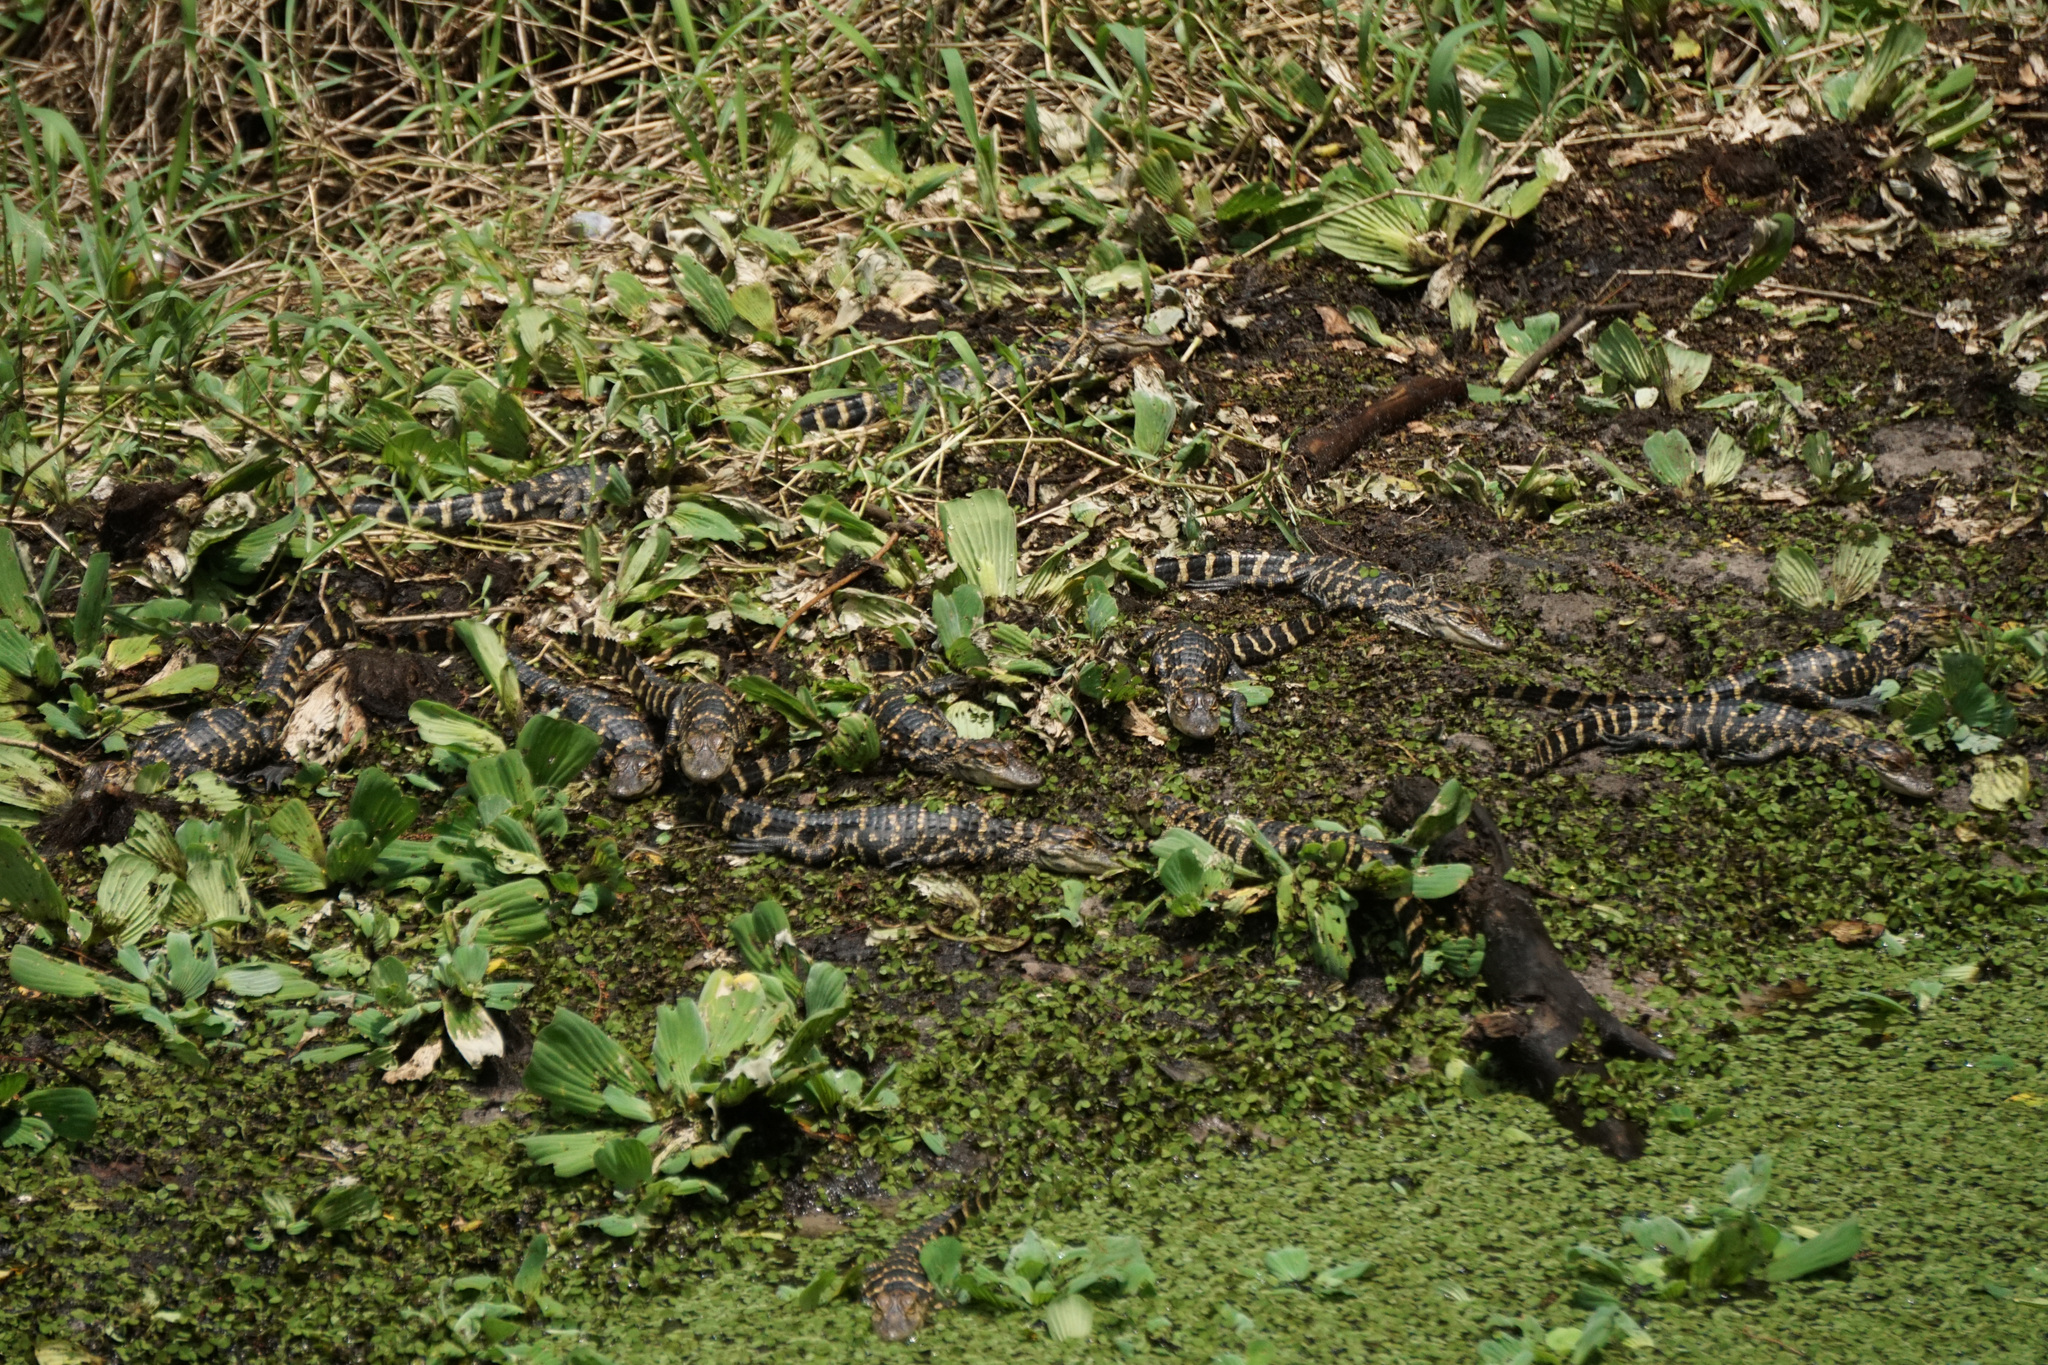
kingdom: Animalia
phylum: Chordata
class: Crocodylia
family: Alligatoridae
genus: Alligator
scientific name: Alligator mississippiensis
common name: American alligator
